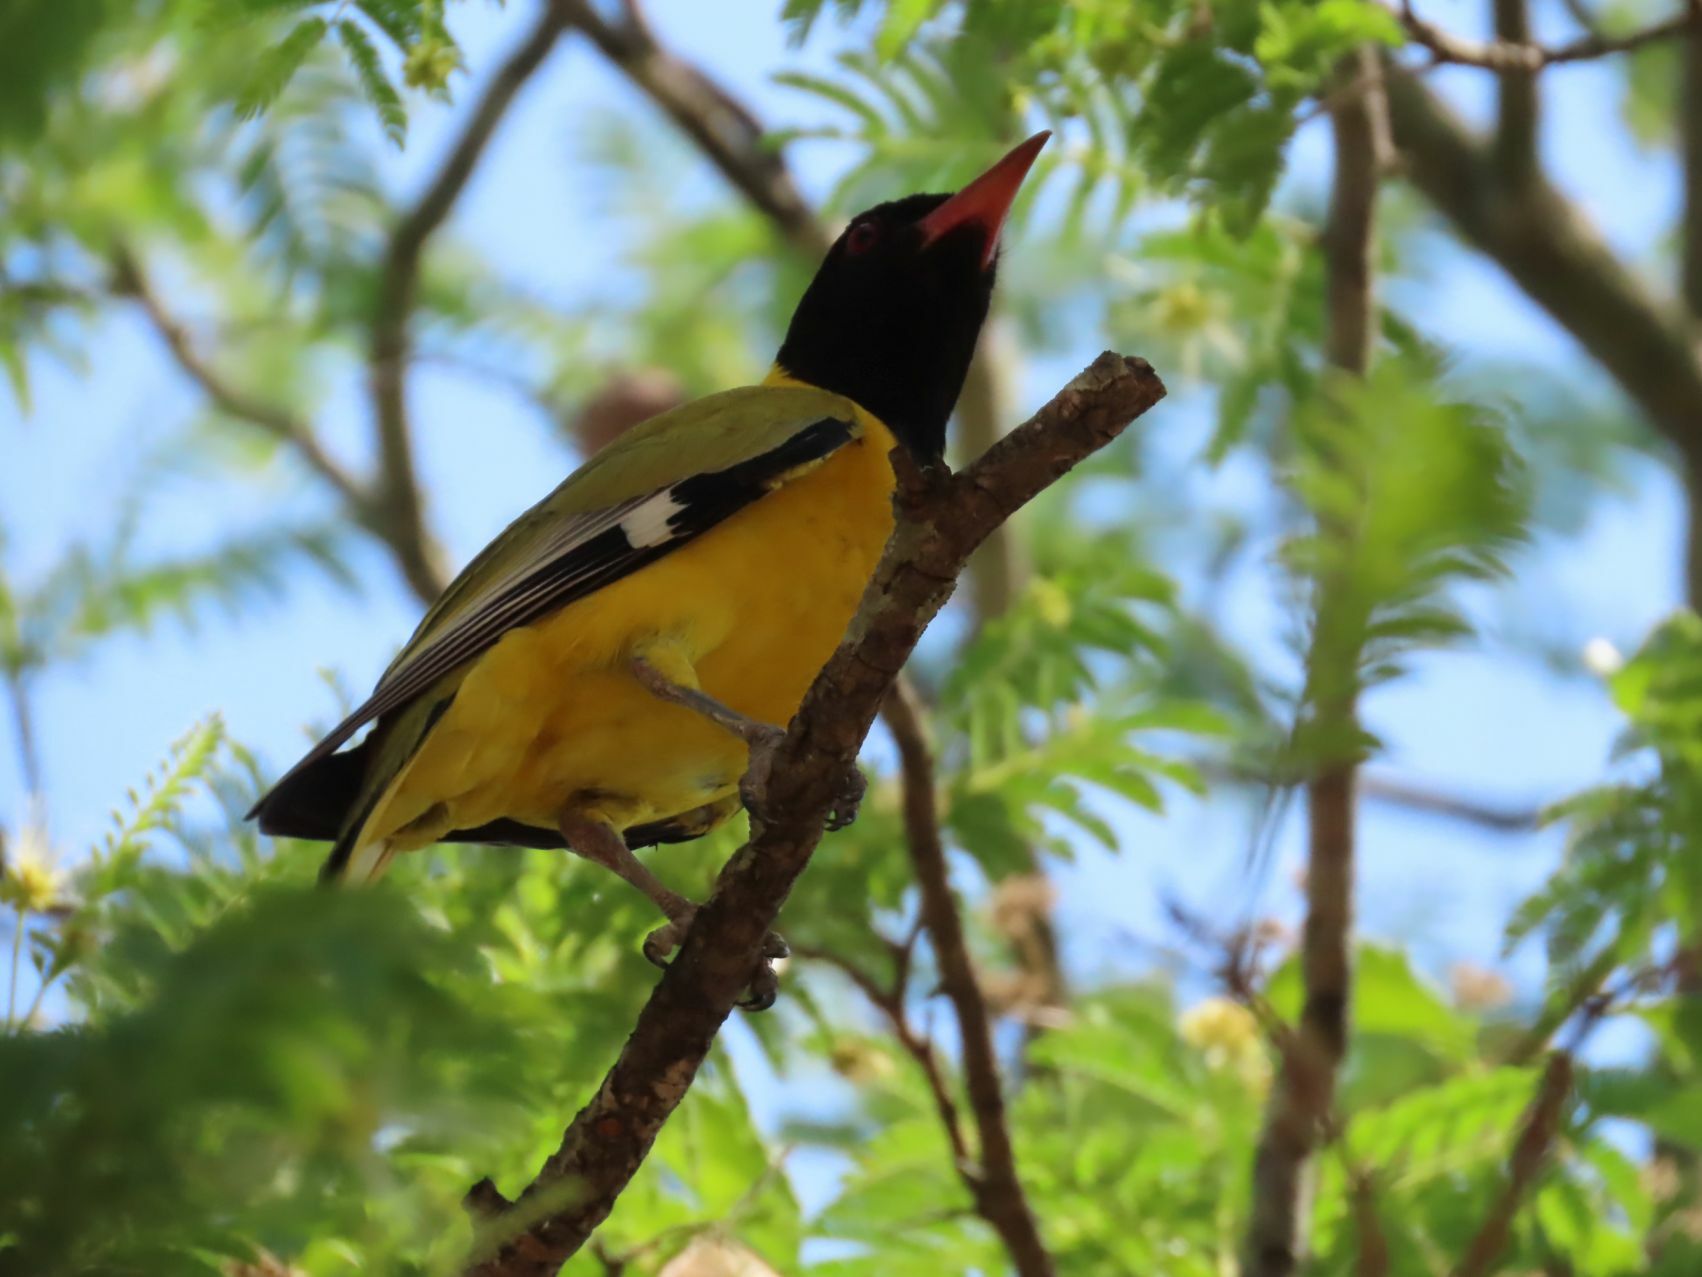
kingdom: Animalia
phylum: Chordata
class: Aves
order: Passeriformes
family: Oriolidae
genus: Oriolus
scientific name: Oriolus larvatus
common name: Black-headed oriole
